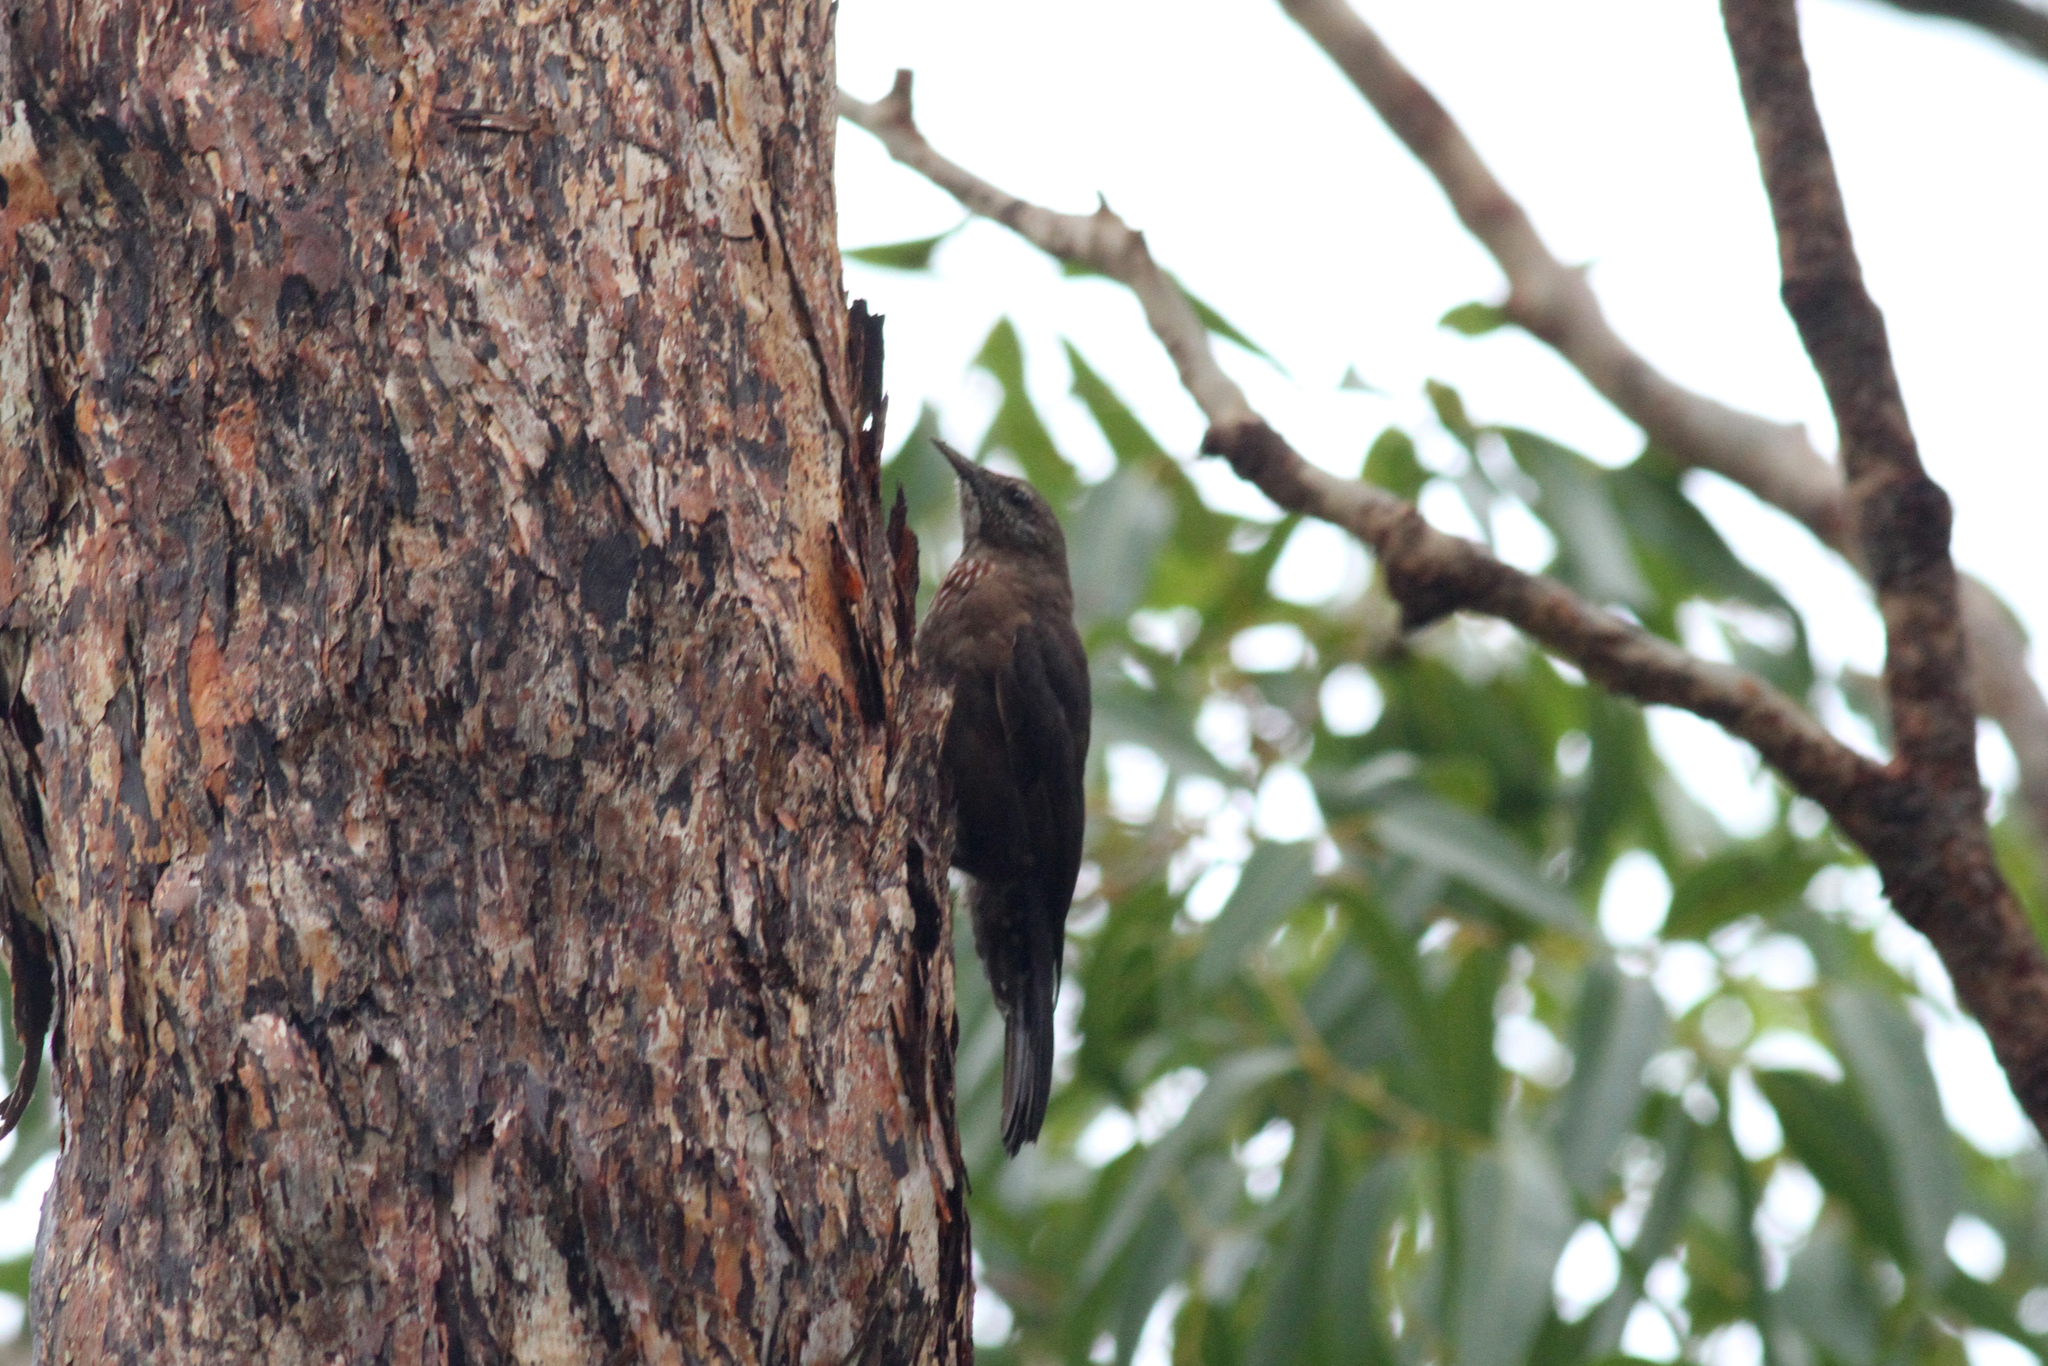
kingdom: Animalia
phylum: Chordata
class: Aves
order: Passeriformes
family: Climacteridae
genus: Climacteris
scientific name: Climacteris melanurus
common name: Black-tailed treecreeper
